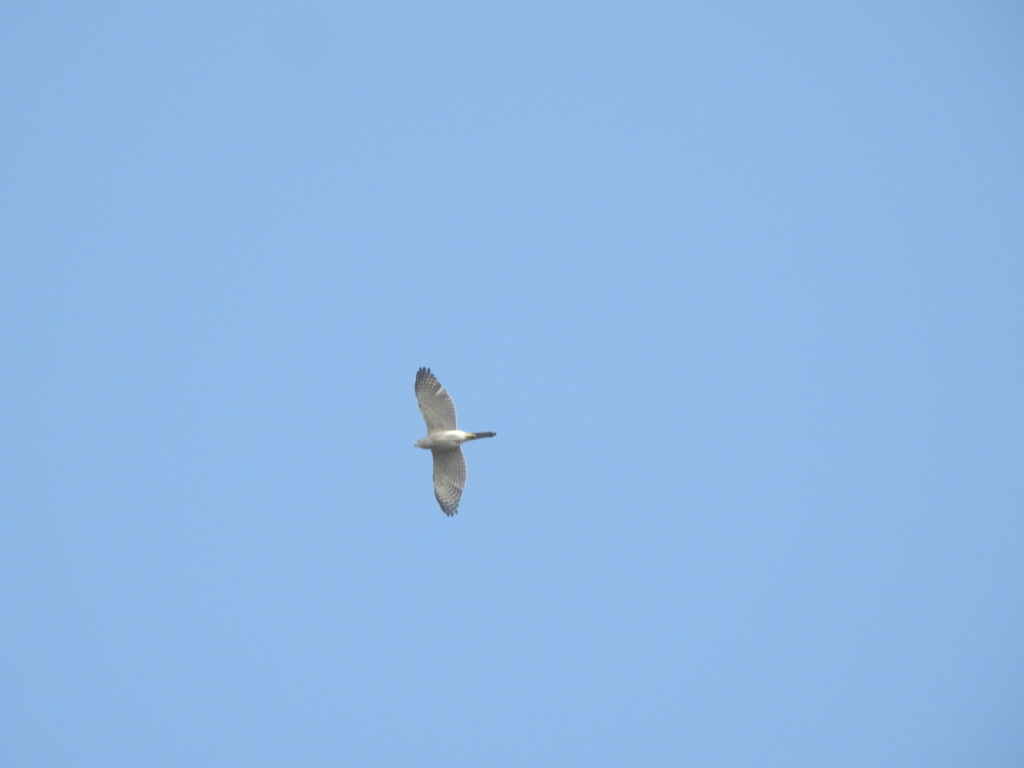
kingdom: Animalia
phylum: Chordata
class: Aves
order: Accipitriformes
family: Accipitridae
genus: Accipiter
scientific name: Accipiter badius
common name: Shikra
